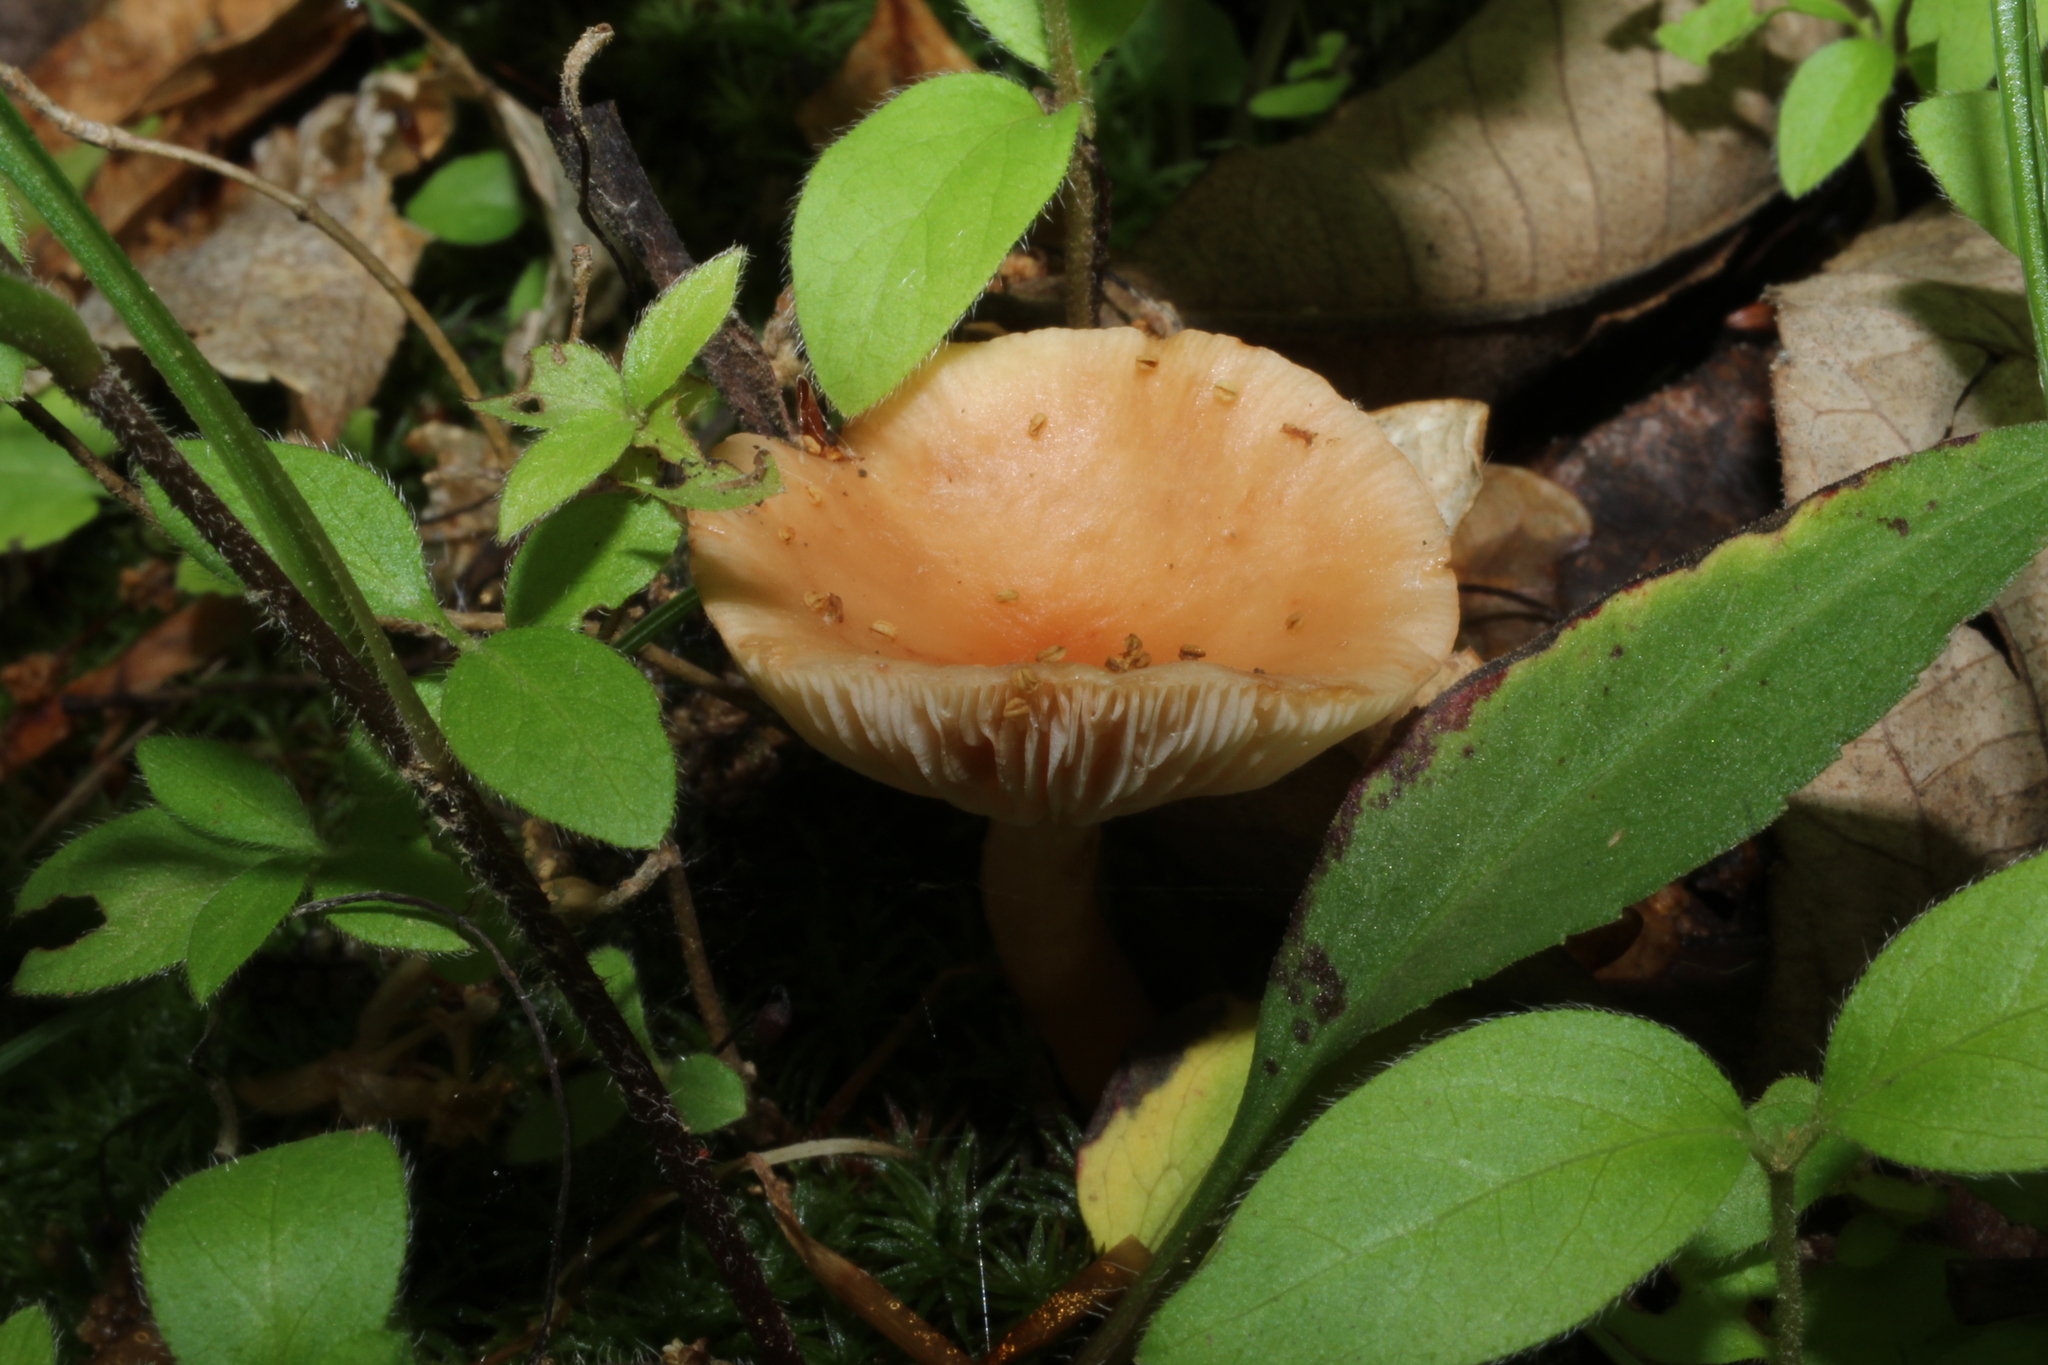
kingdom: Fungi
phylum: Basidiomycota
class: Agaricomycetes
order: Agaricales
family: Omphalotaceae
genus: Gymnopus
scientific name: Gymnopus dryophilus
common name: Penny top
